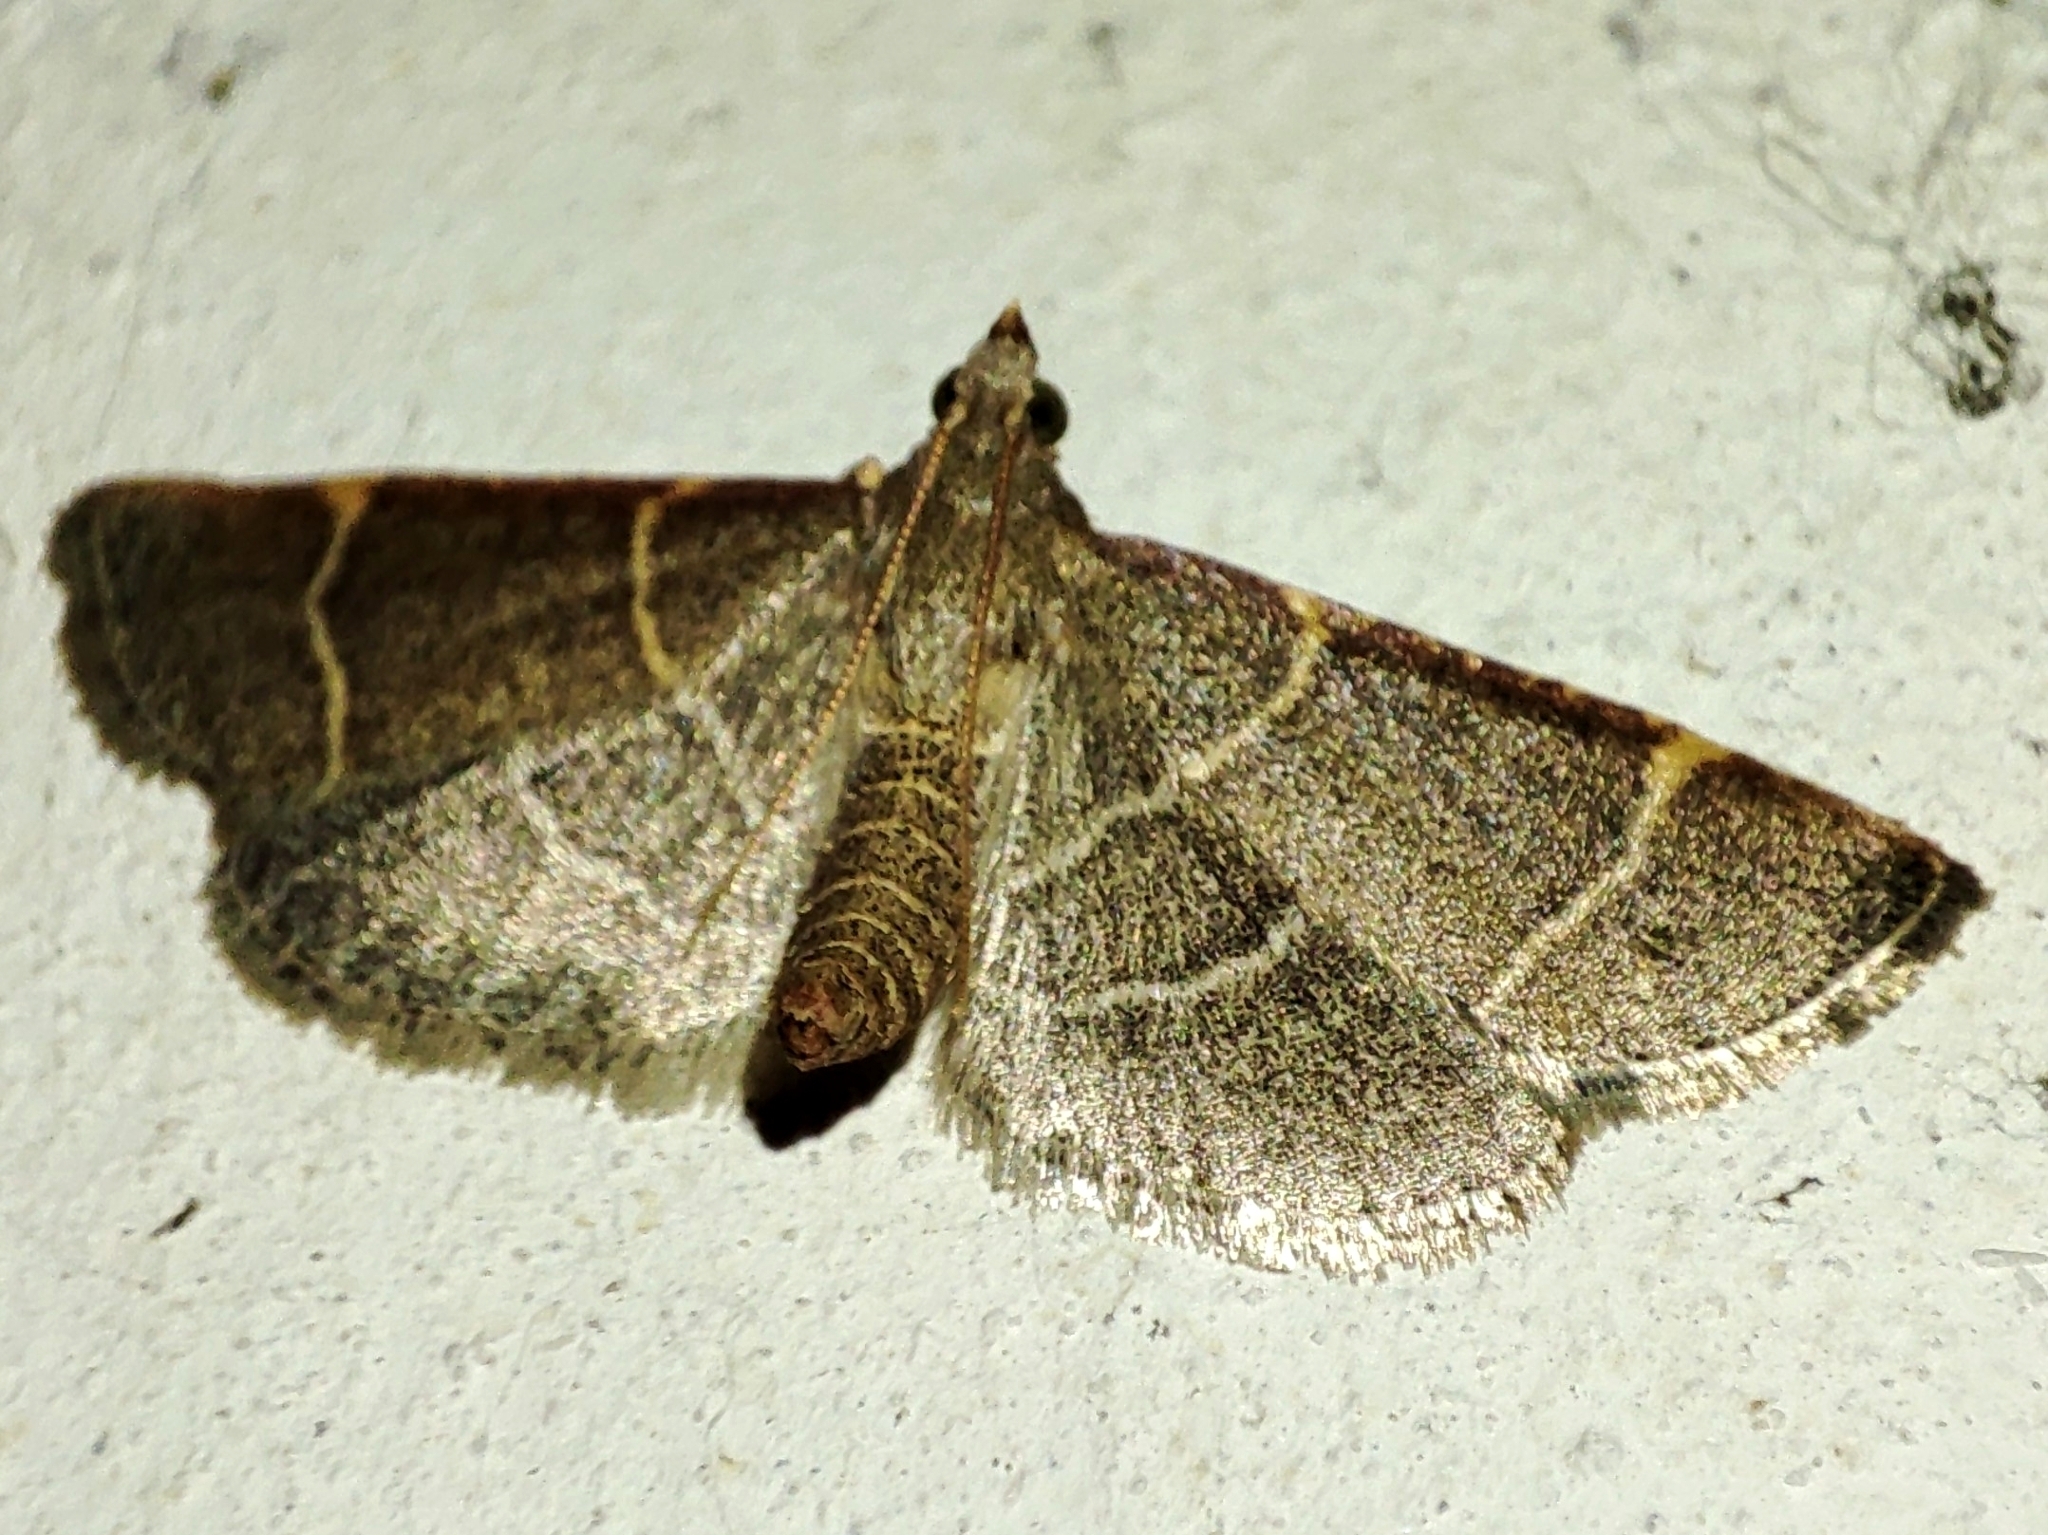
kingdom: Animalia
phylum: Arthropoda
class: Insecta
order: Lepidoptera
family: Pyralidae
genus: Hypsopygia
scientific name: Hypsopygia glaucinalis
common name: Double-striped tabby
